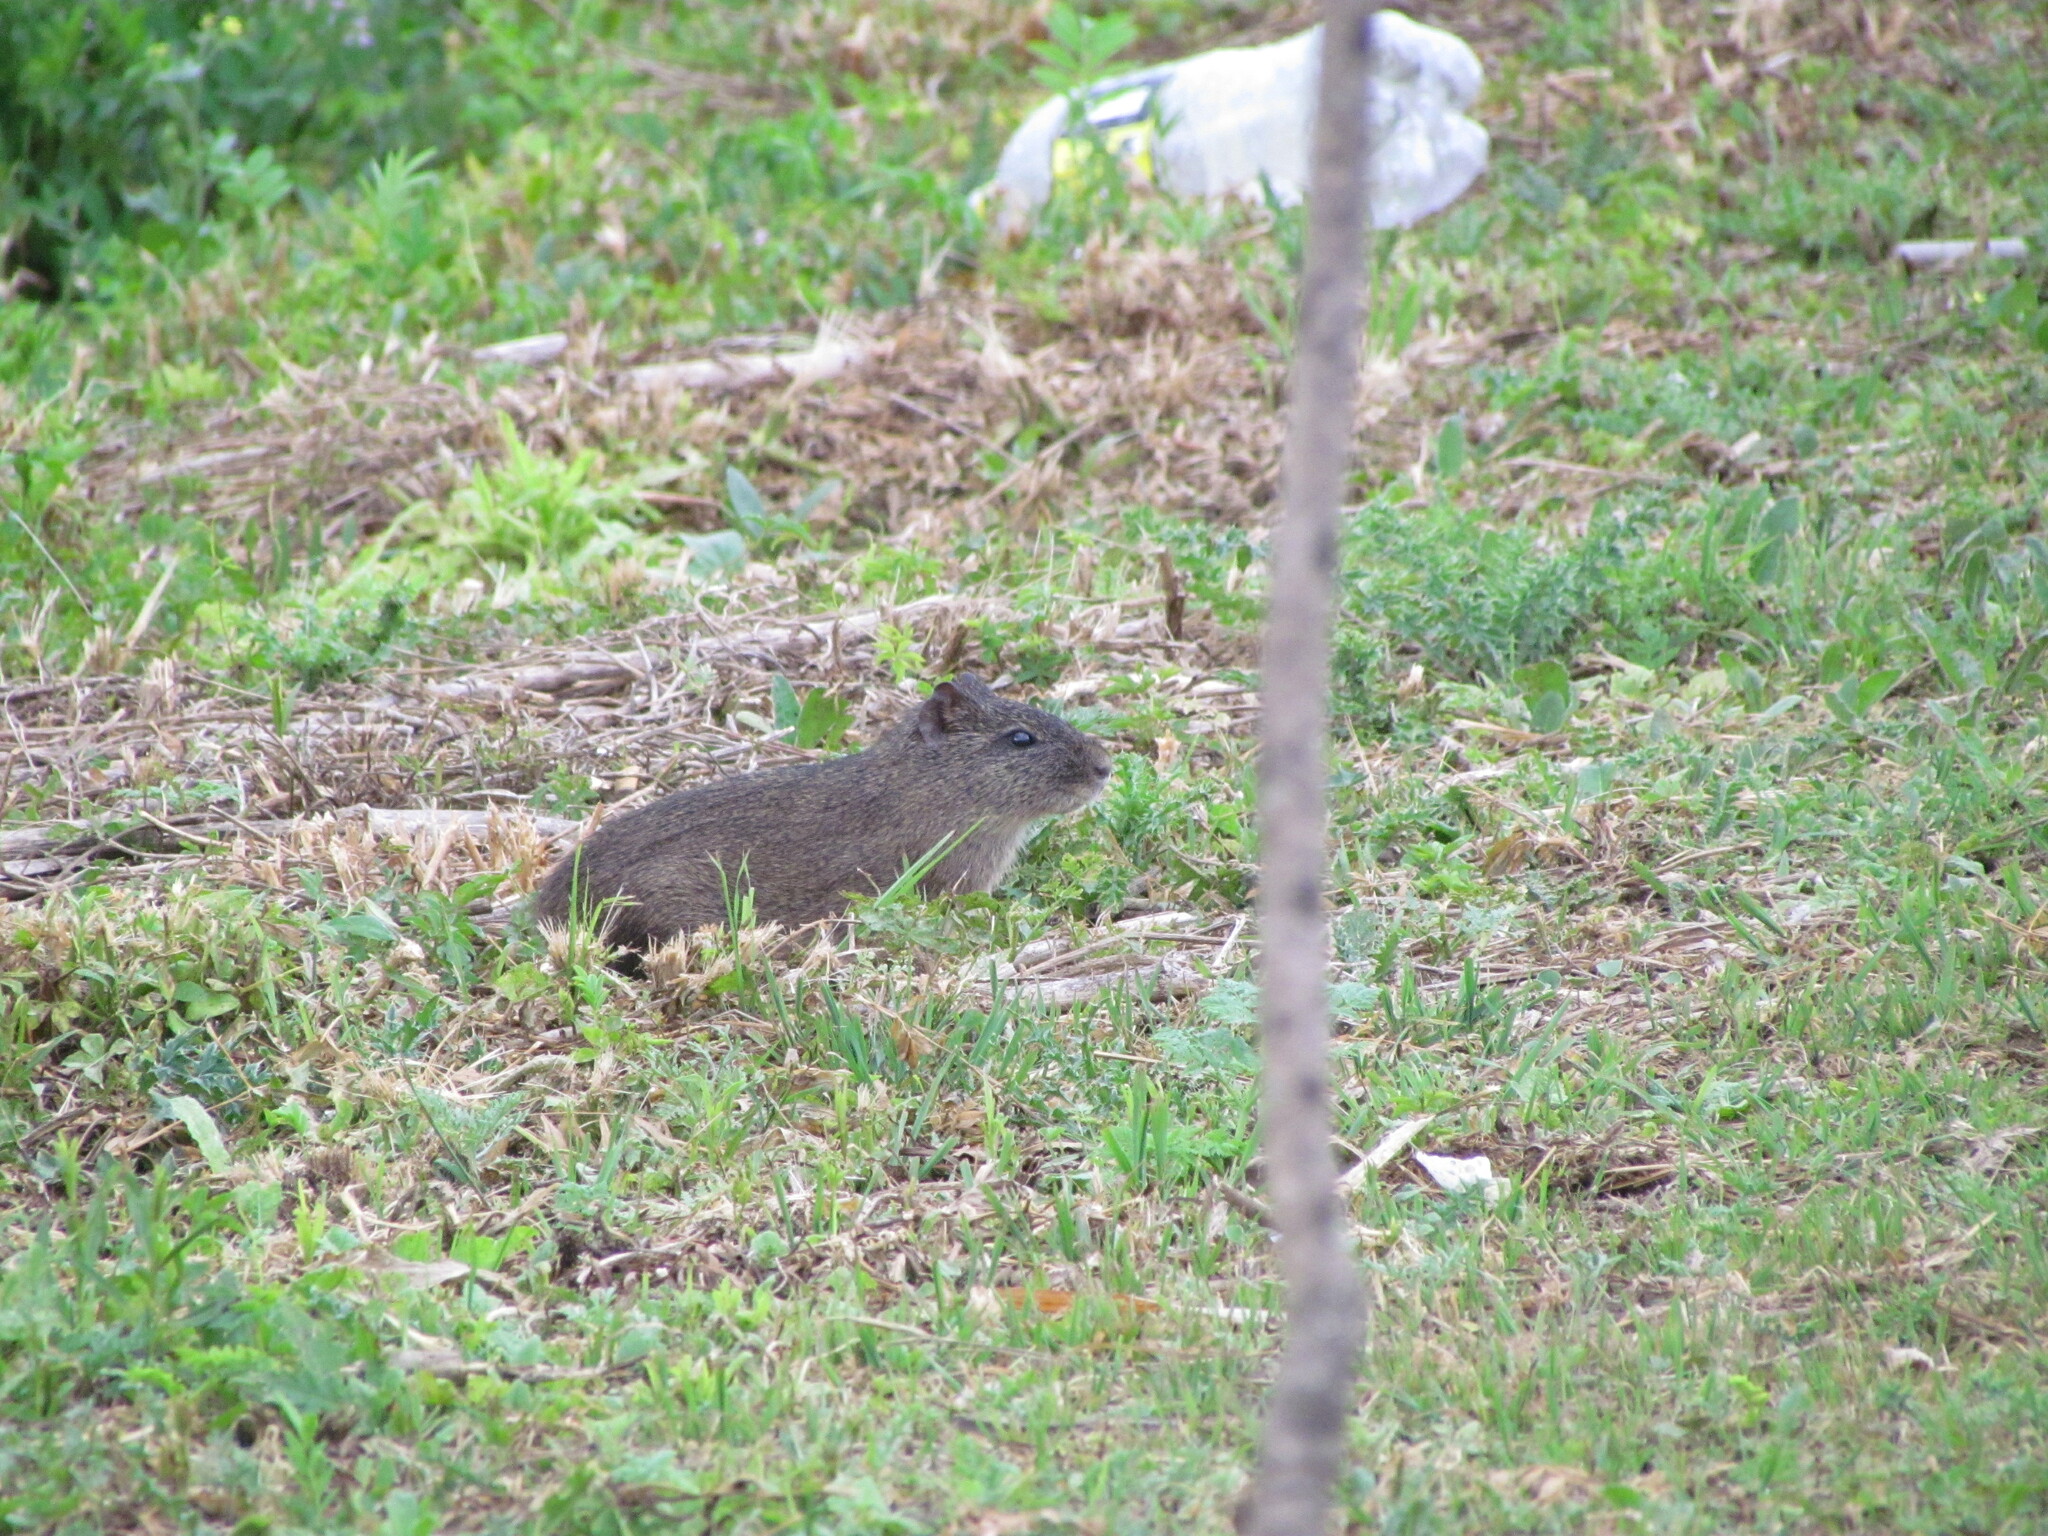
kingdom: Animalia
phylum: Chordata
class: Mammalia
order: Rodentia
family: Caviidae
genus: Cavia
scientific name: Cavia aperea
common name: Brazilian guinea pig
